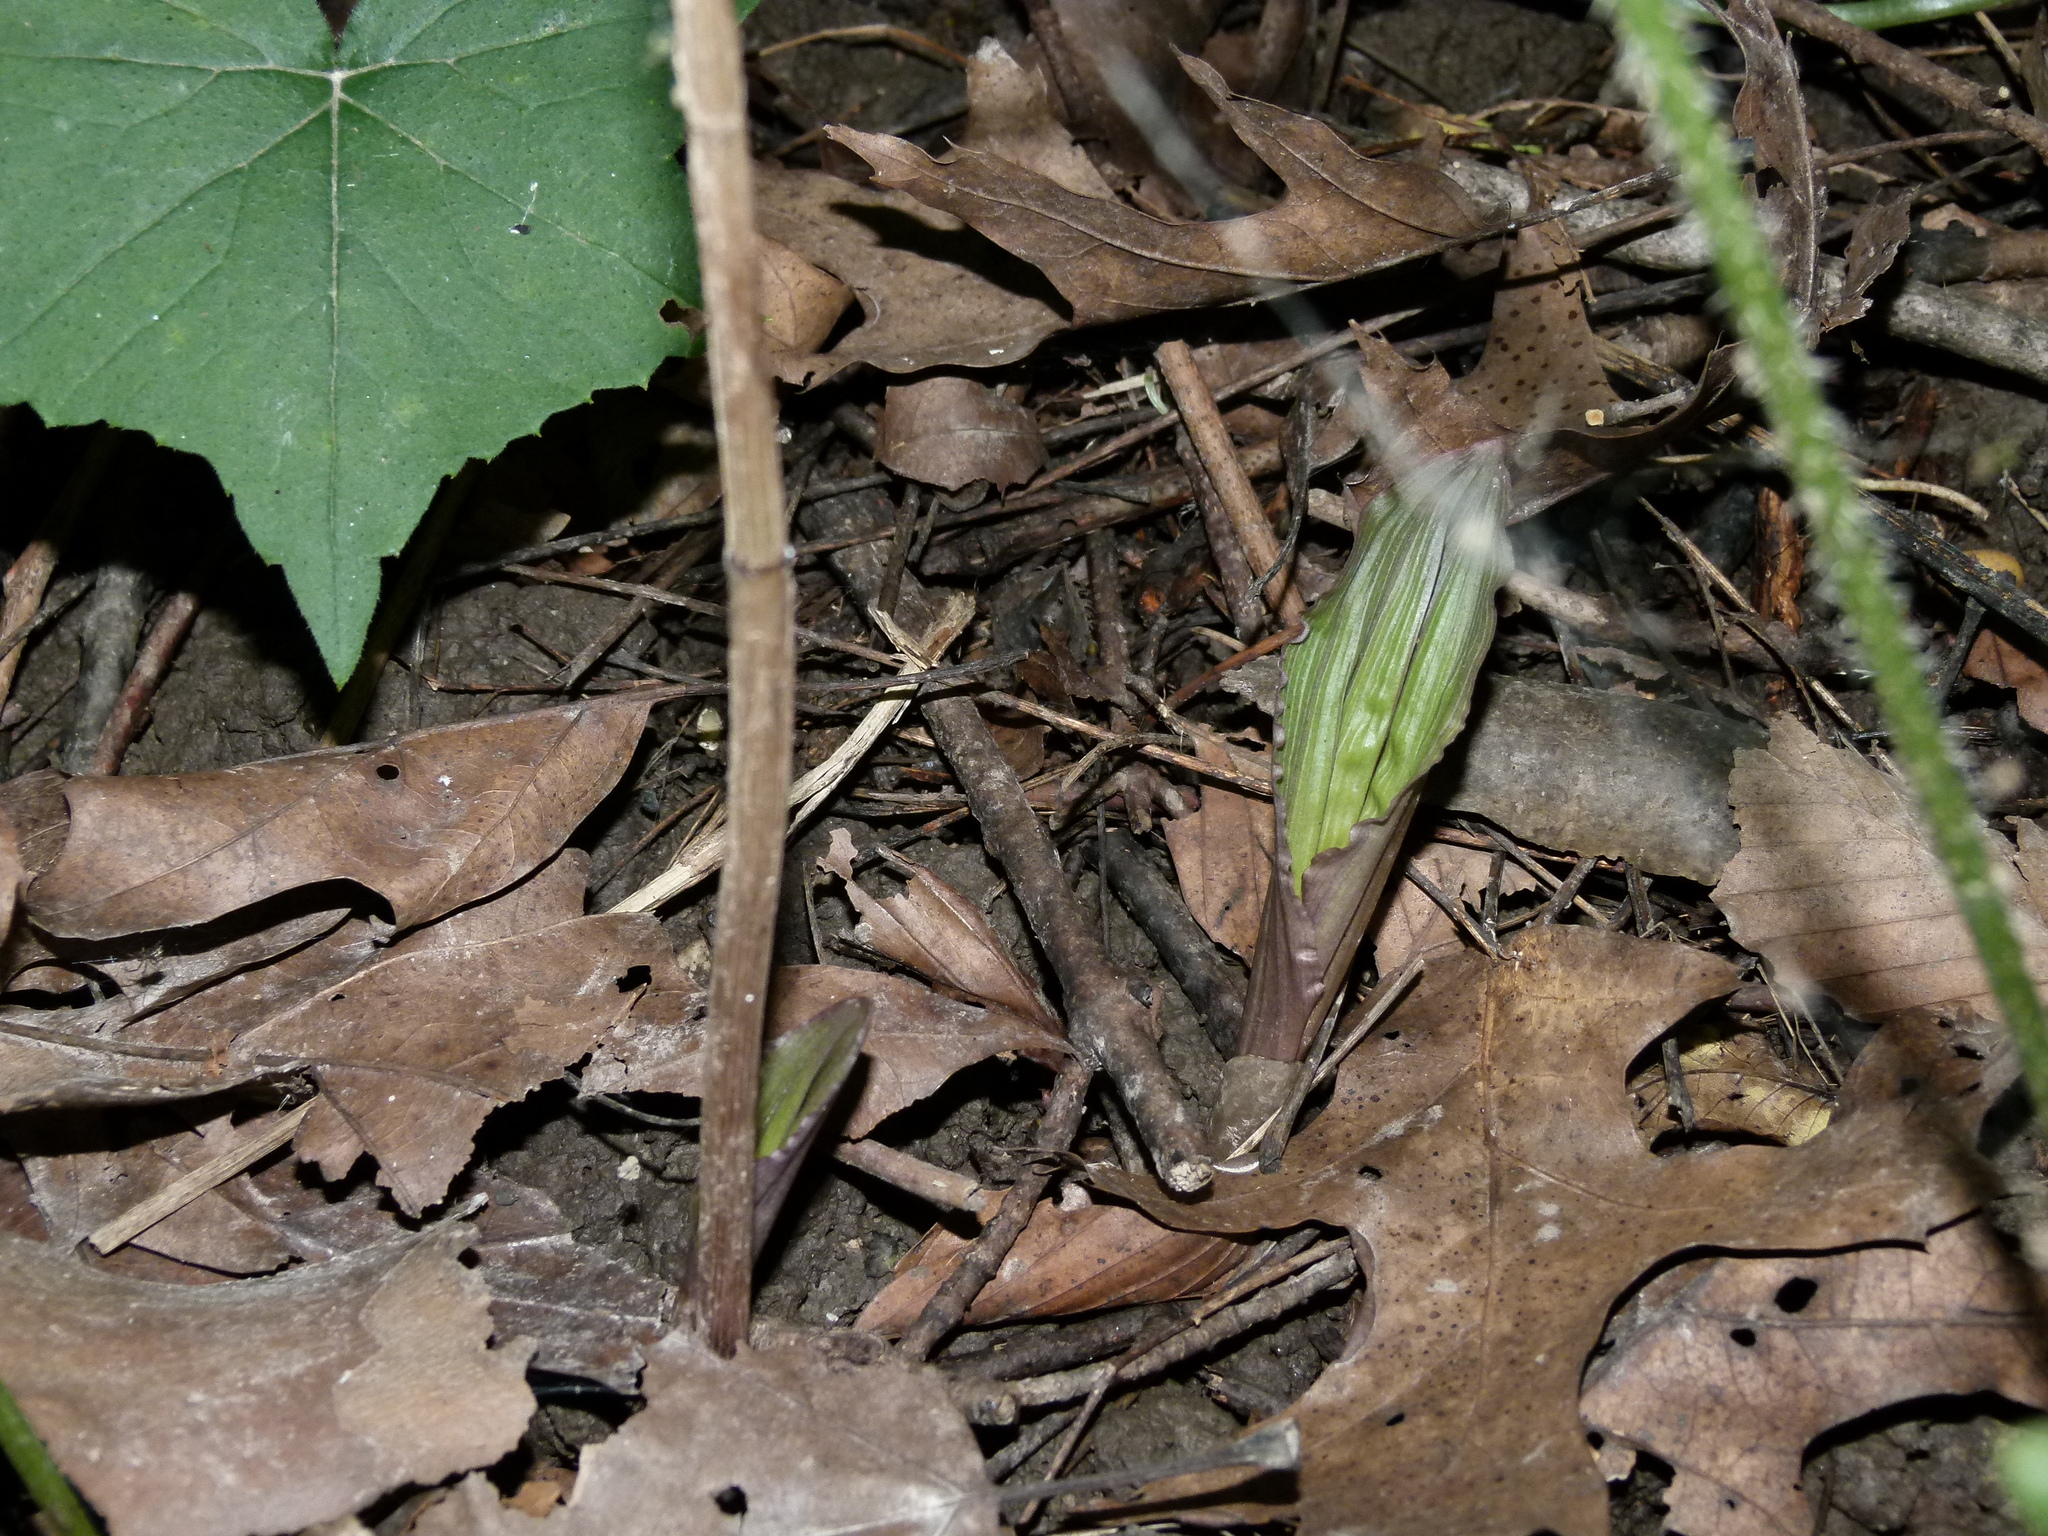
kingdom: Plantae
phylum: Tracheophyta
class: Liliopsida
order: Asparagales
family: Orchidaceae
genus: Aplectrum
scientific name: Aplectrum hyemale
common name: Adam-and-eve
